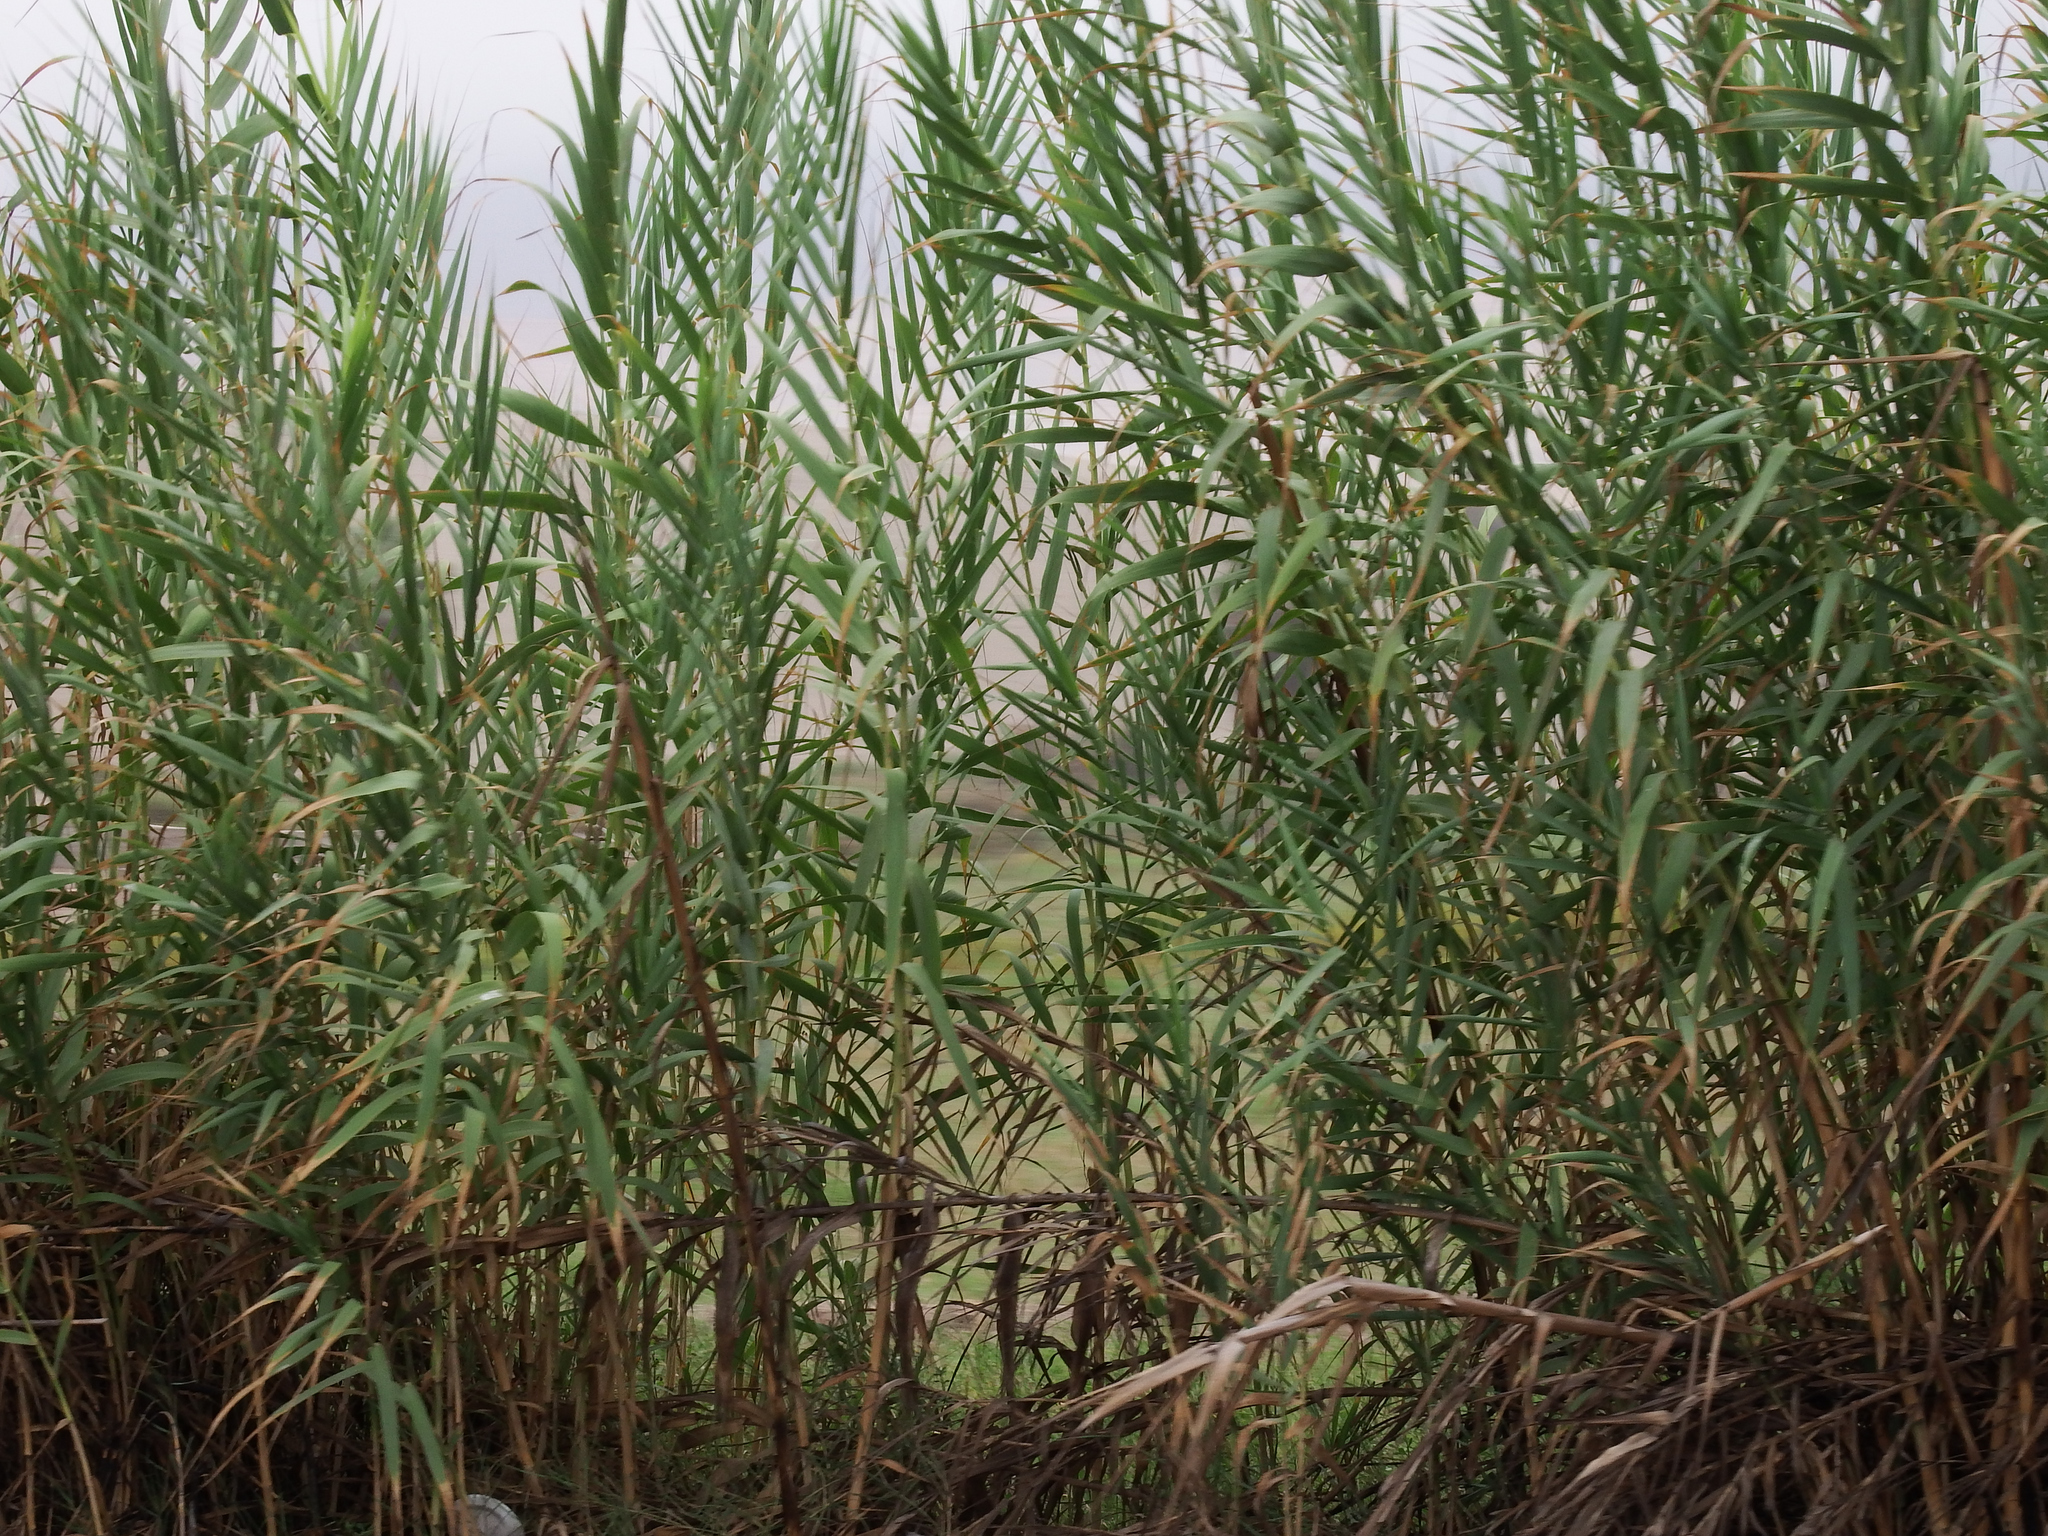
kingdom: Plantae
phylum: Tracheophyta
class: Liliopsida
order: Poales
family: Poaceae
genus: Arundo
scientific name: Arundo donax
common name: Giant reed
